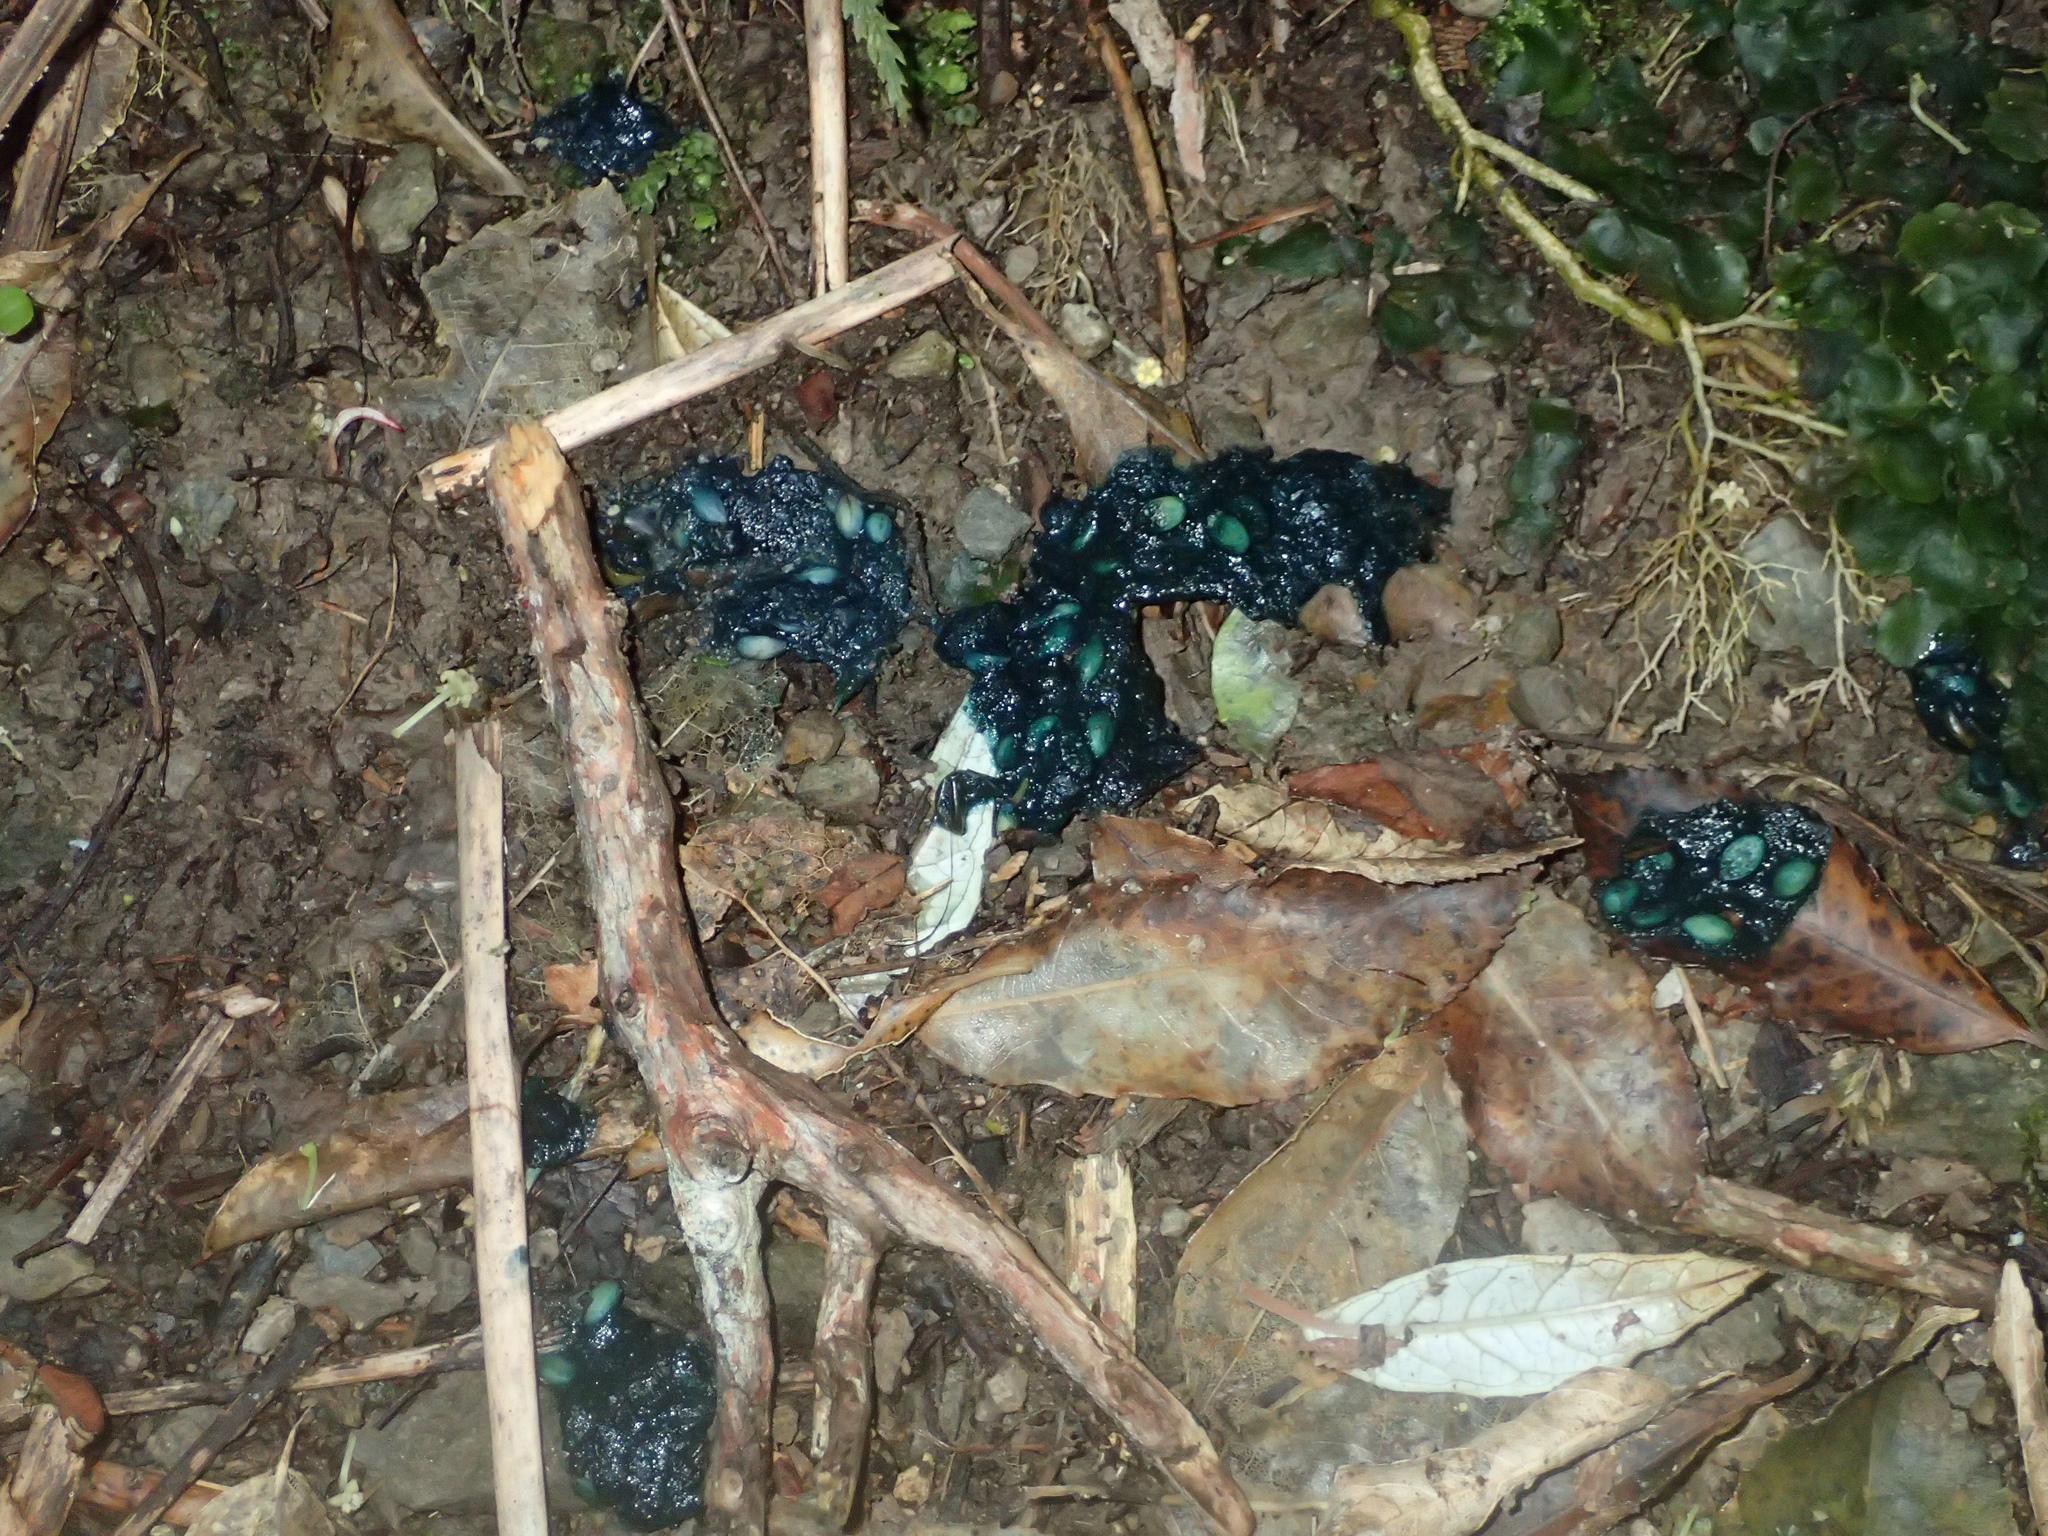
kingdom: Animalia
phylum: Chordata
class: Aves
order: Columbiformes
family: Columbidae
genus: Hemiphaga
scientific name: Hemiphaga novaeseelandiae
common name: New zealand pigeon
